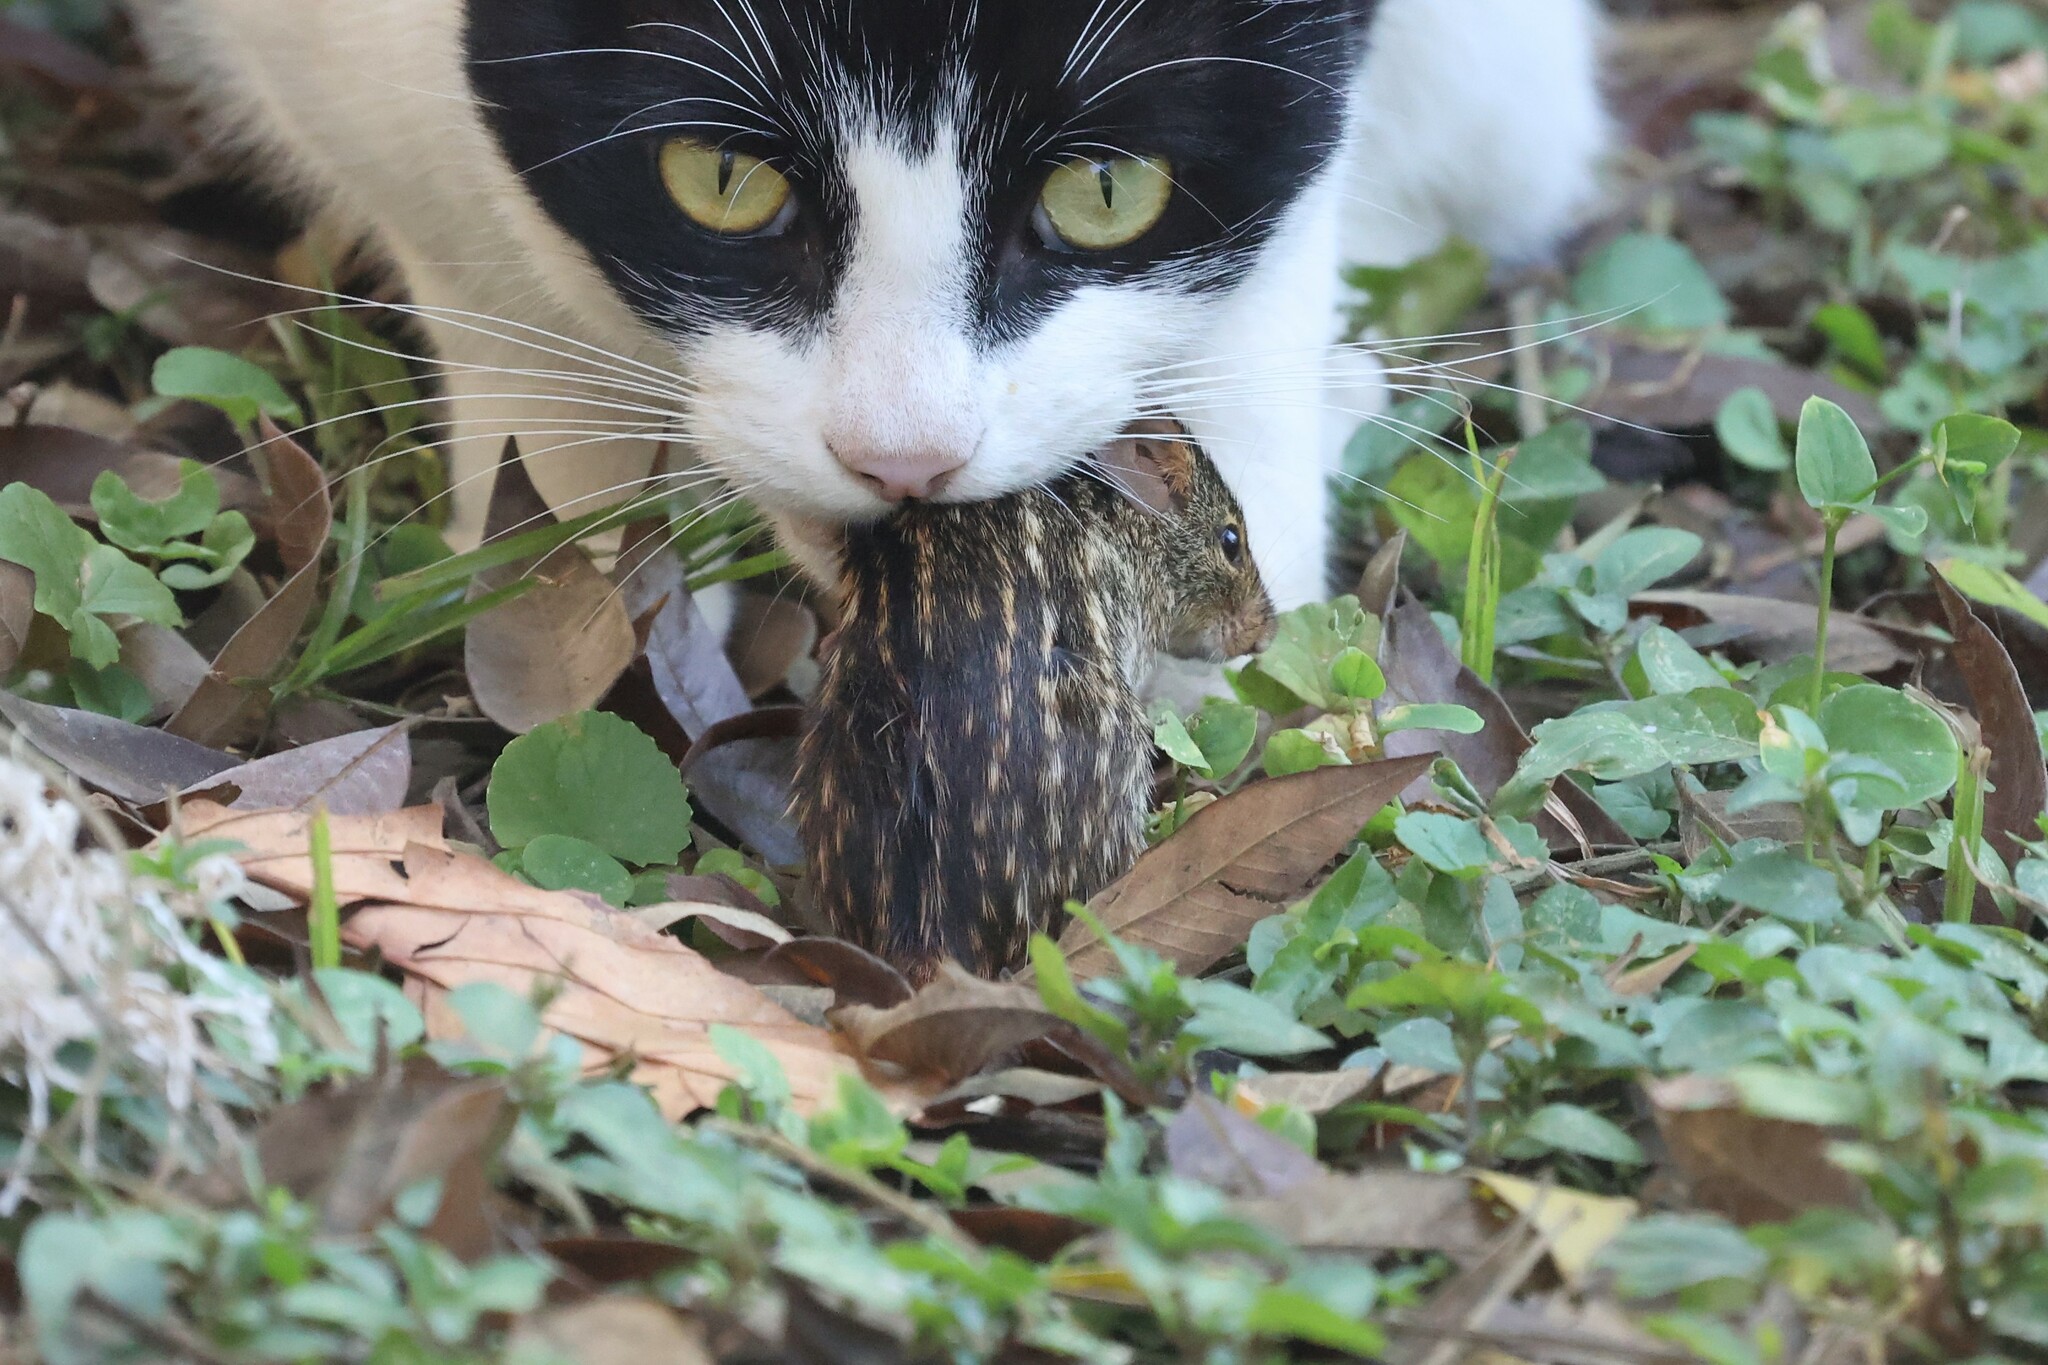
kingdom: Animalia
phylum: Chordata
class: Mammalia
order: Rodentia
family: Muridae
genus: Lemniscomys
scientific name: Lemniscomys striatus
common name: Typical lemniscomys
